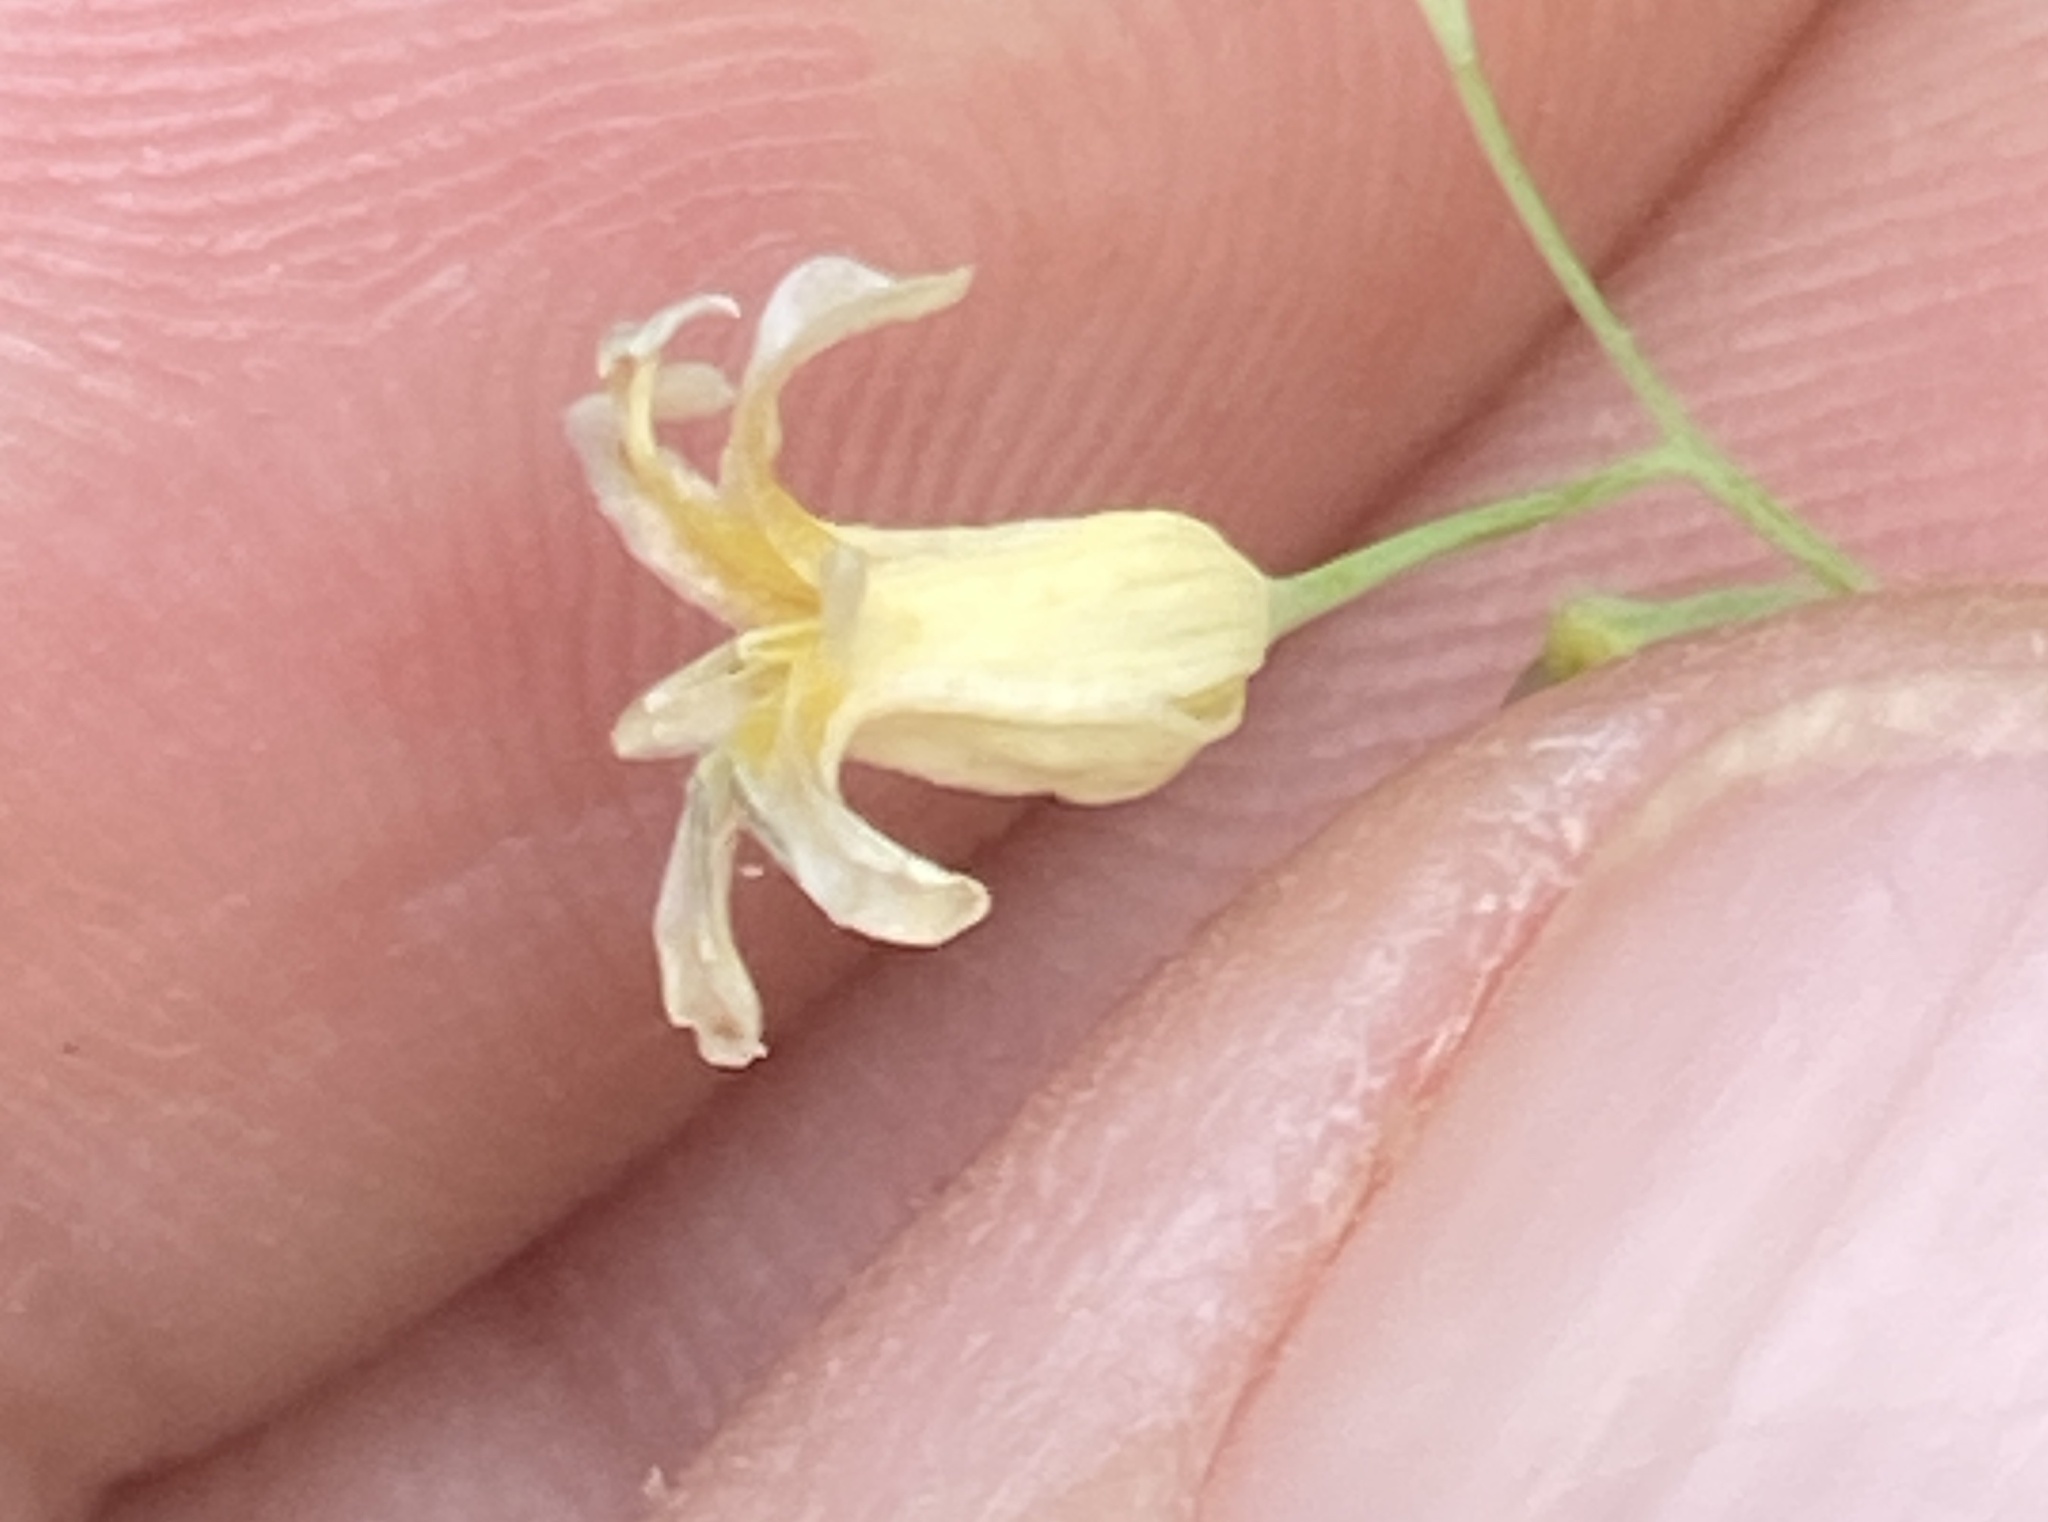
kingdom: Plantae
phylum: Tracheophyta
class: Magnoliopsida
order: Brassicales
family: Brassicaceae
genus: Streptanthus
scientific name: Streptanthus tortuosus
